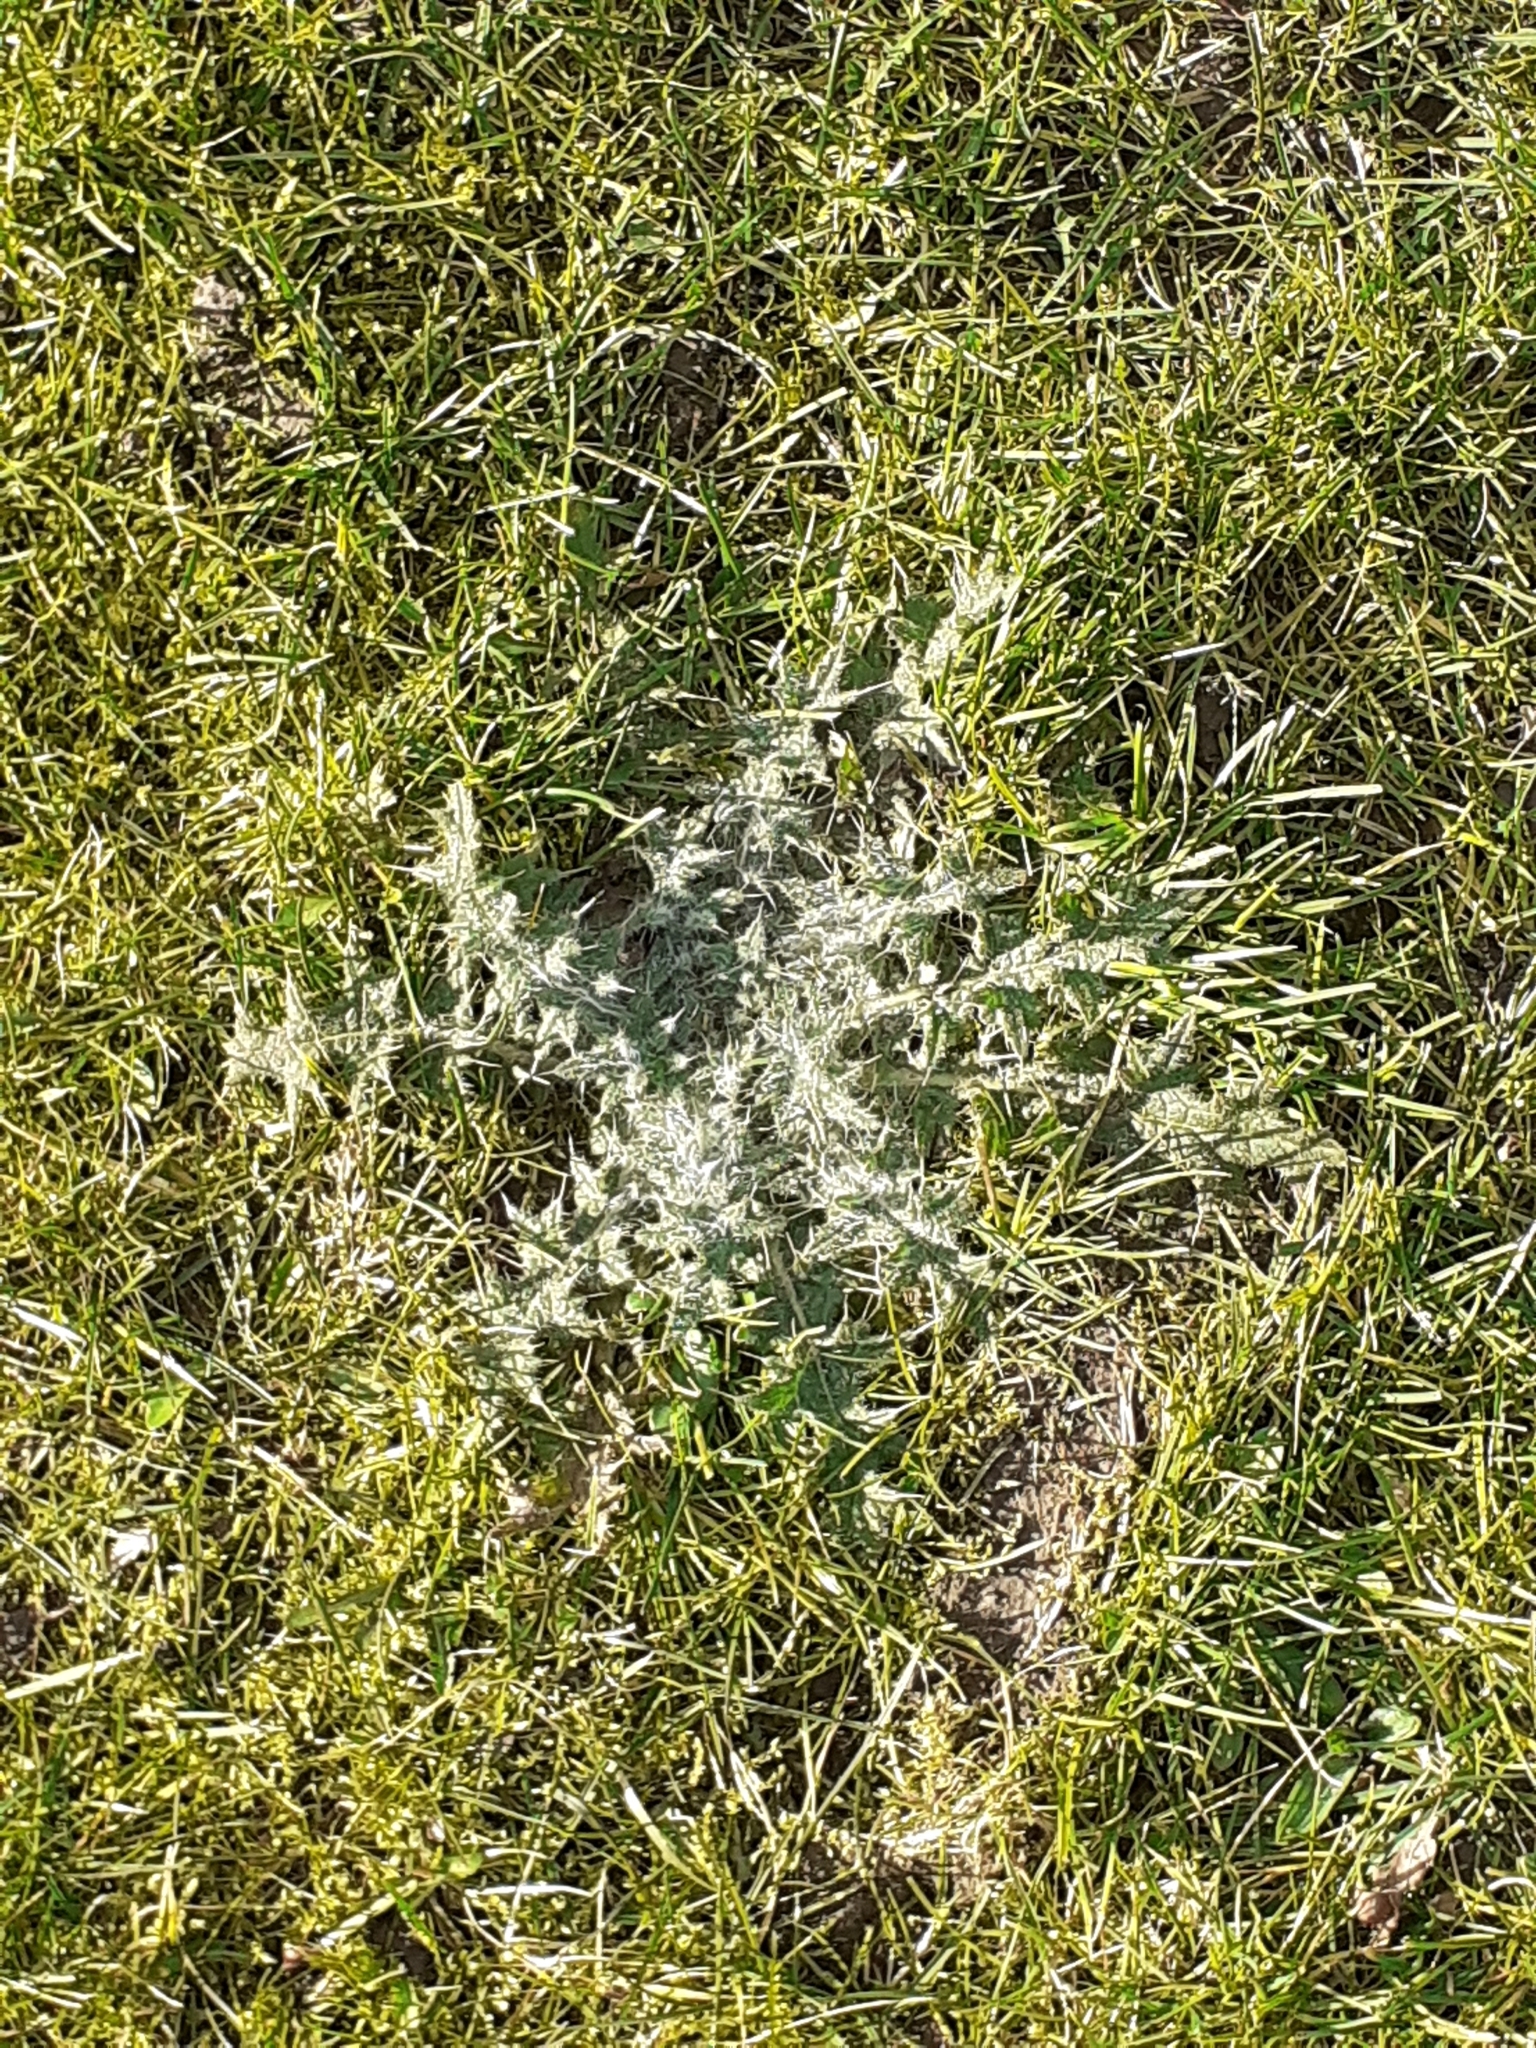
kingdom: Plantae
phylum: Tracheophyta
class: Magnoliopsida
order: Asterales
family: Asteraceae
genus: Cirsium
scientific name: Cirsium vulgare
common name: Bull thistle
